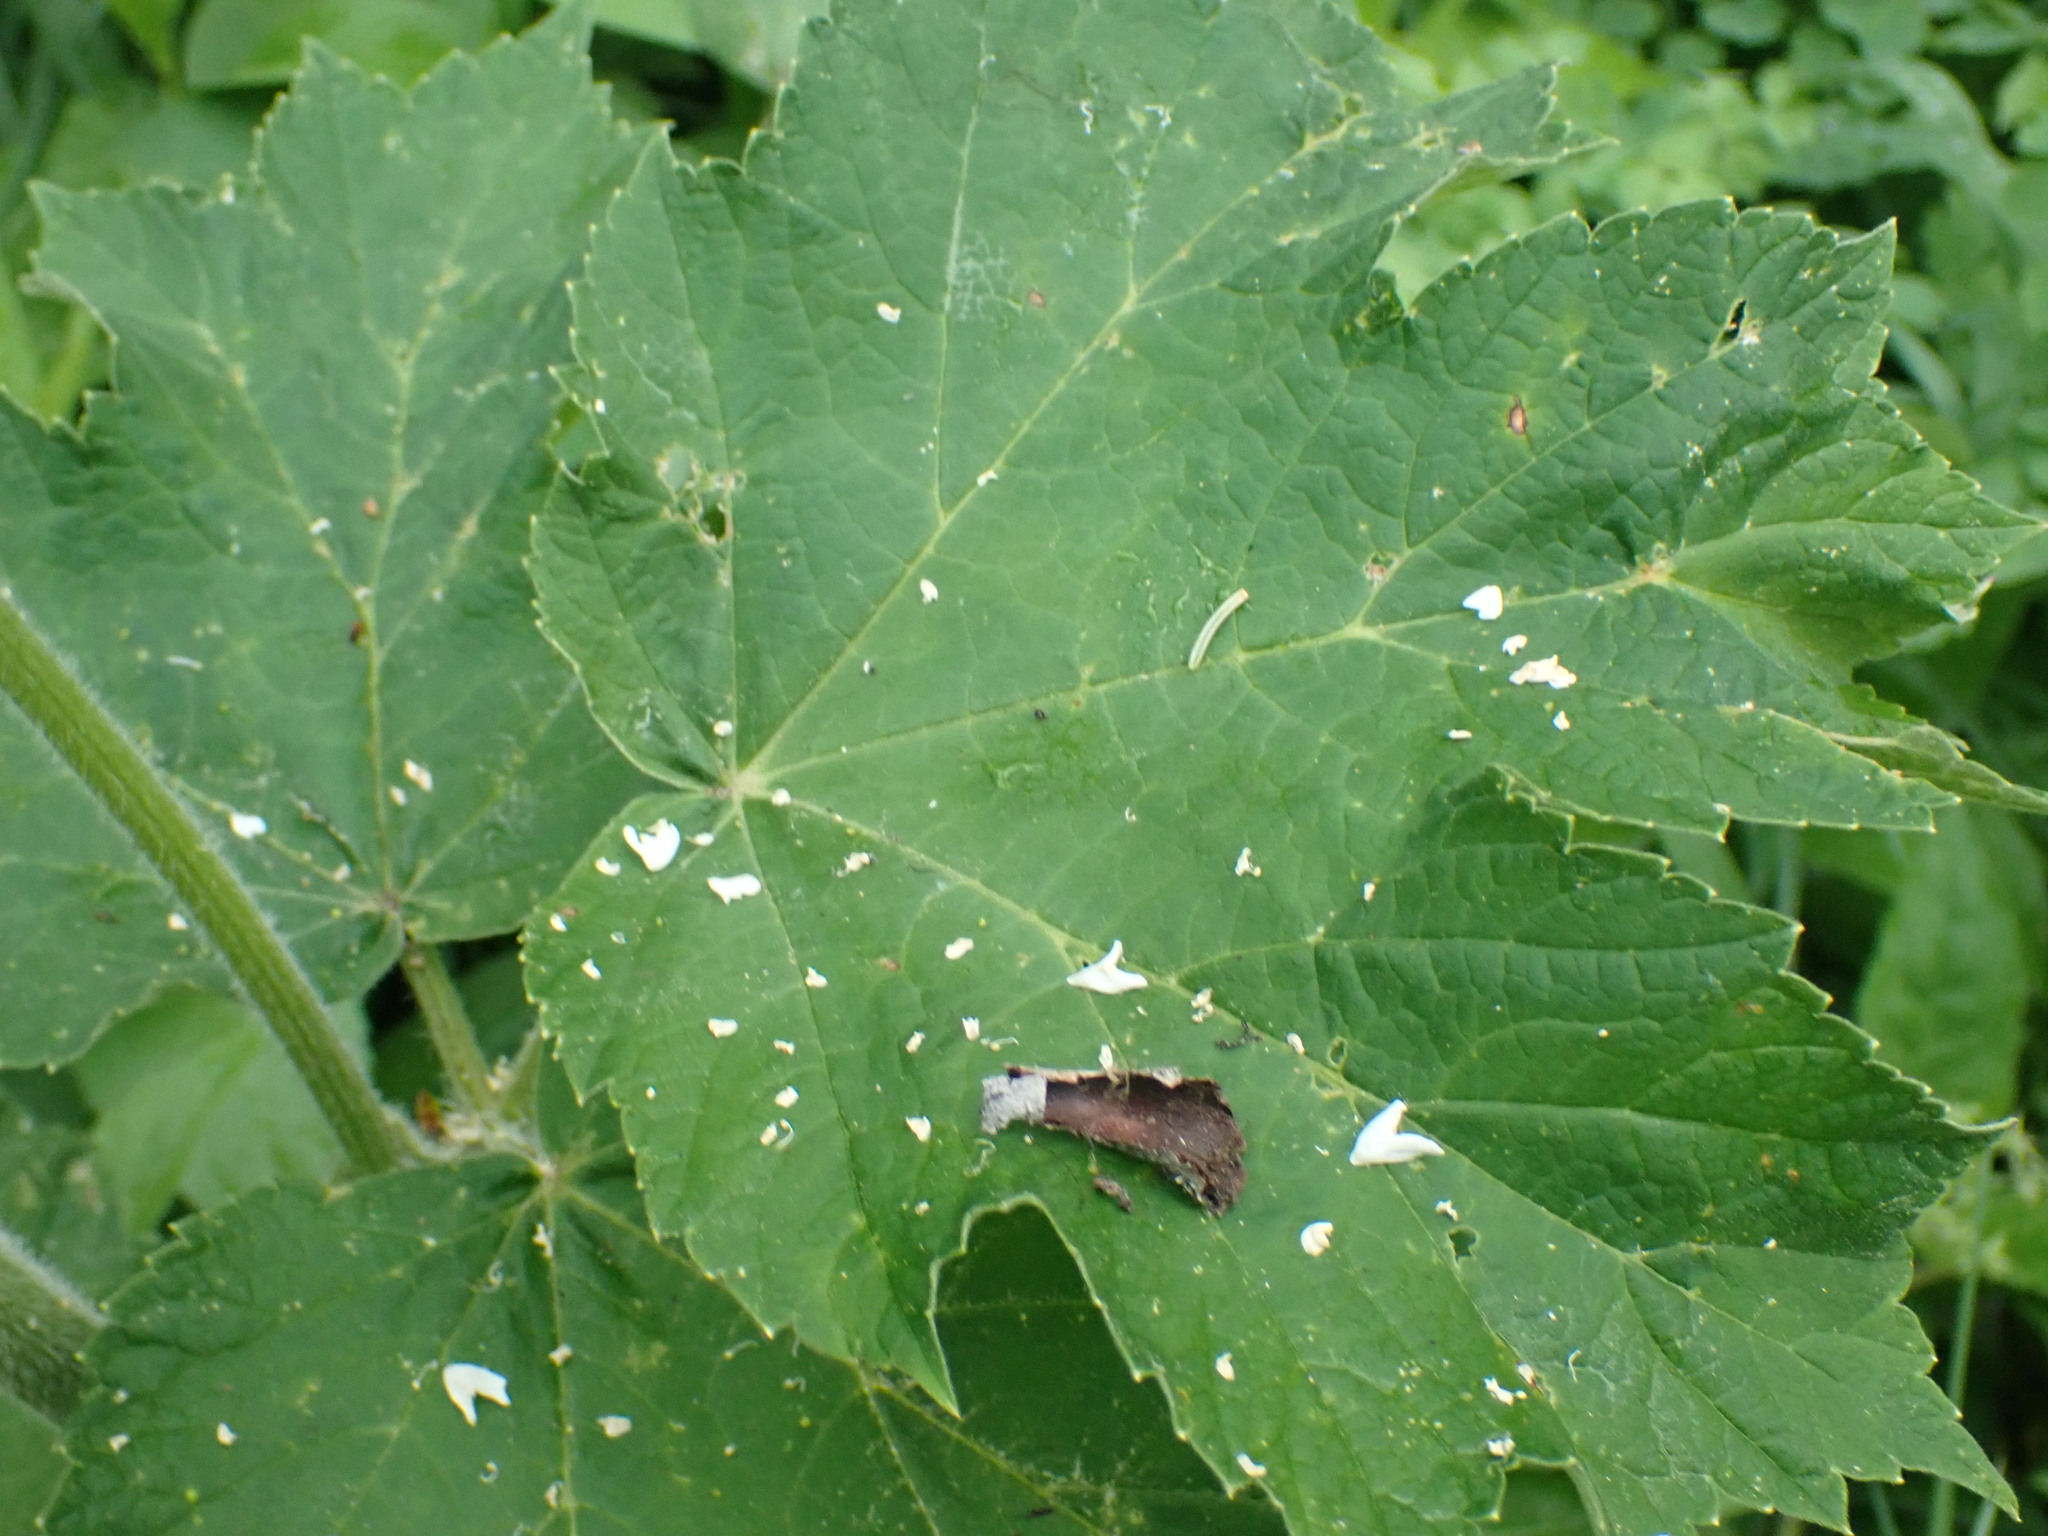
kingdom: Plantae
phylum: Tracheophyta
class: Magnoliopsida
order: Apiales
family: Apiaceae
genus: Heracleum
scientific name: Heracleum maximum
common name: American cow parsnip
